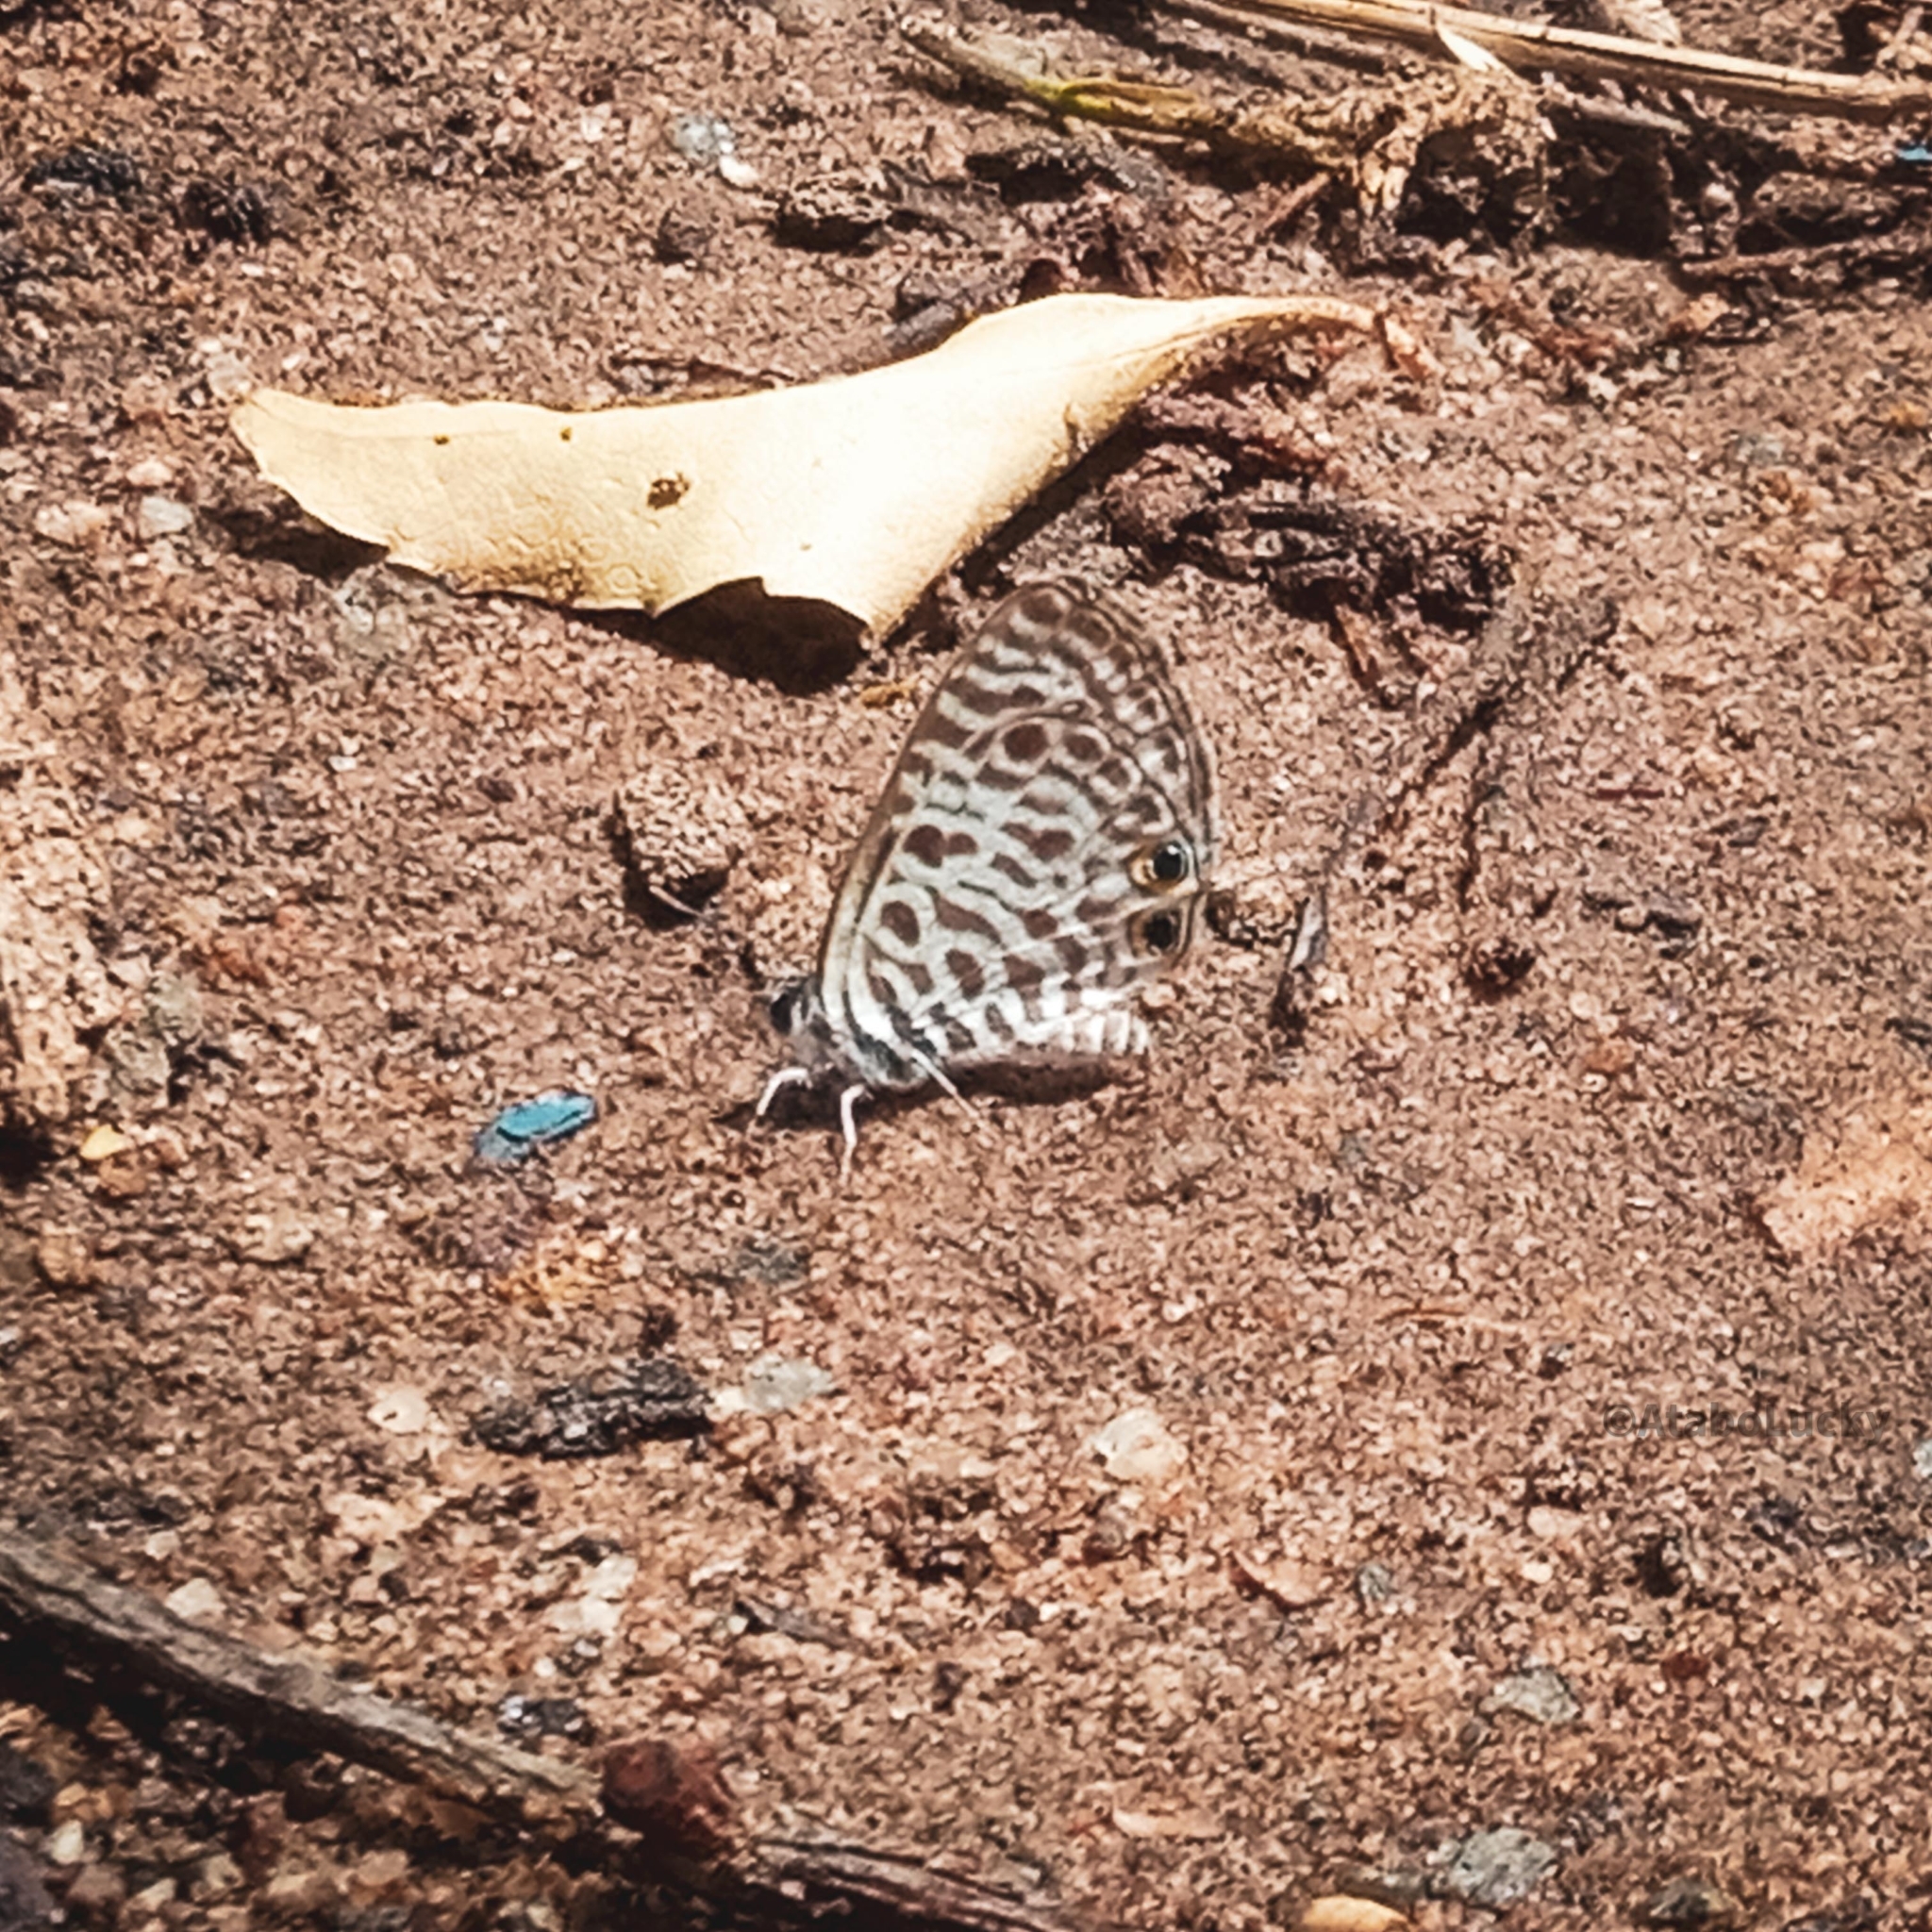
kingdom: Animalia
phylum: Arthropoda
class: Insecta
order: Lepidoptera
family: Lycaenidae
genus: Leptotes
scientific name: Leptotes
